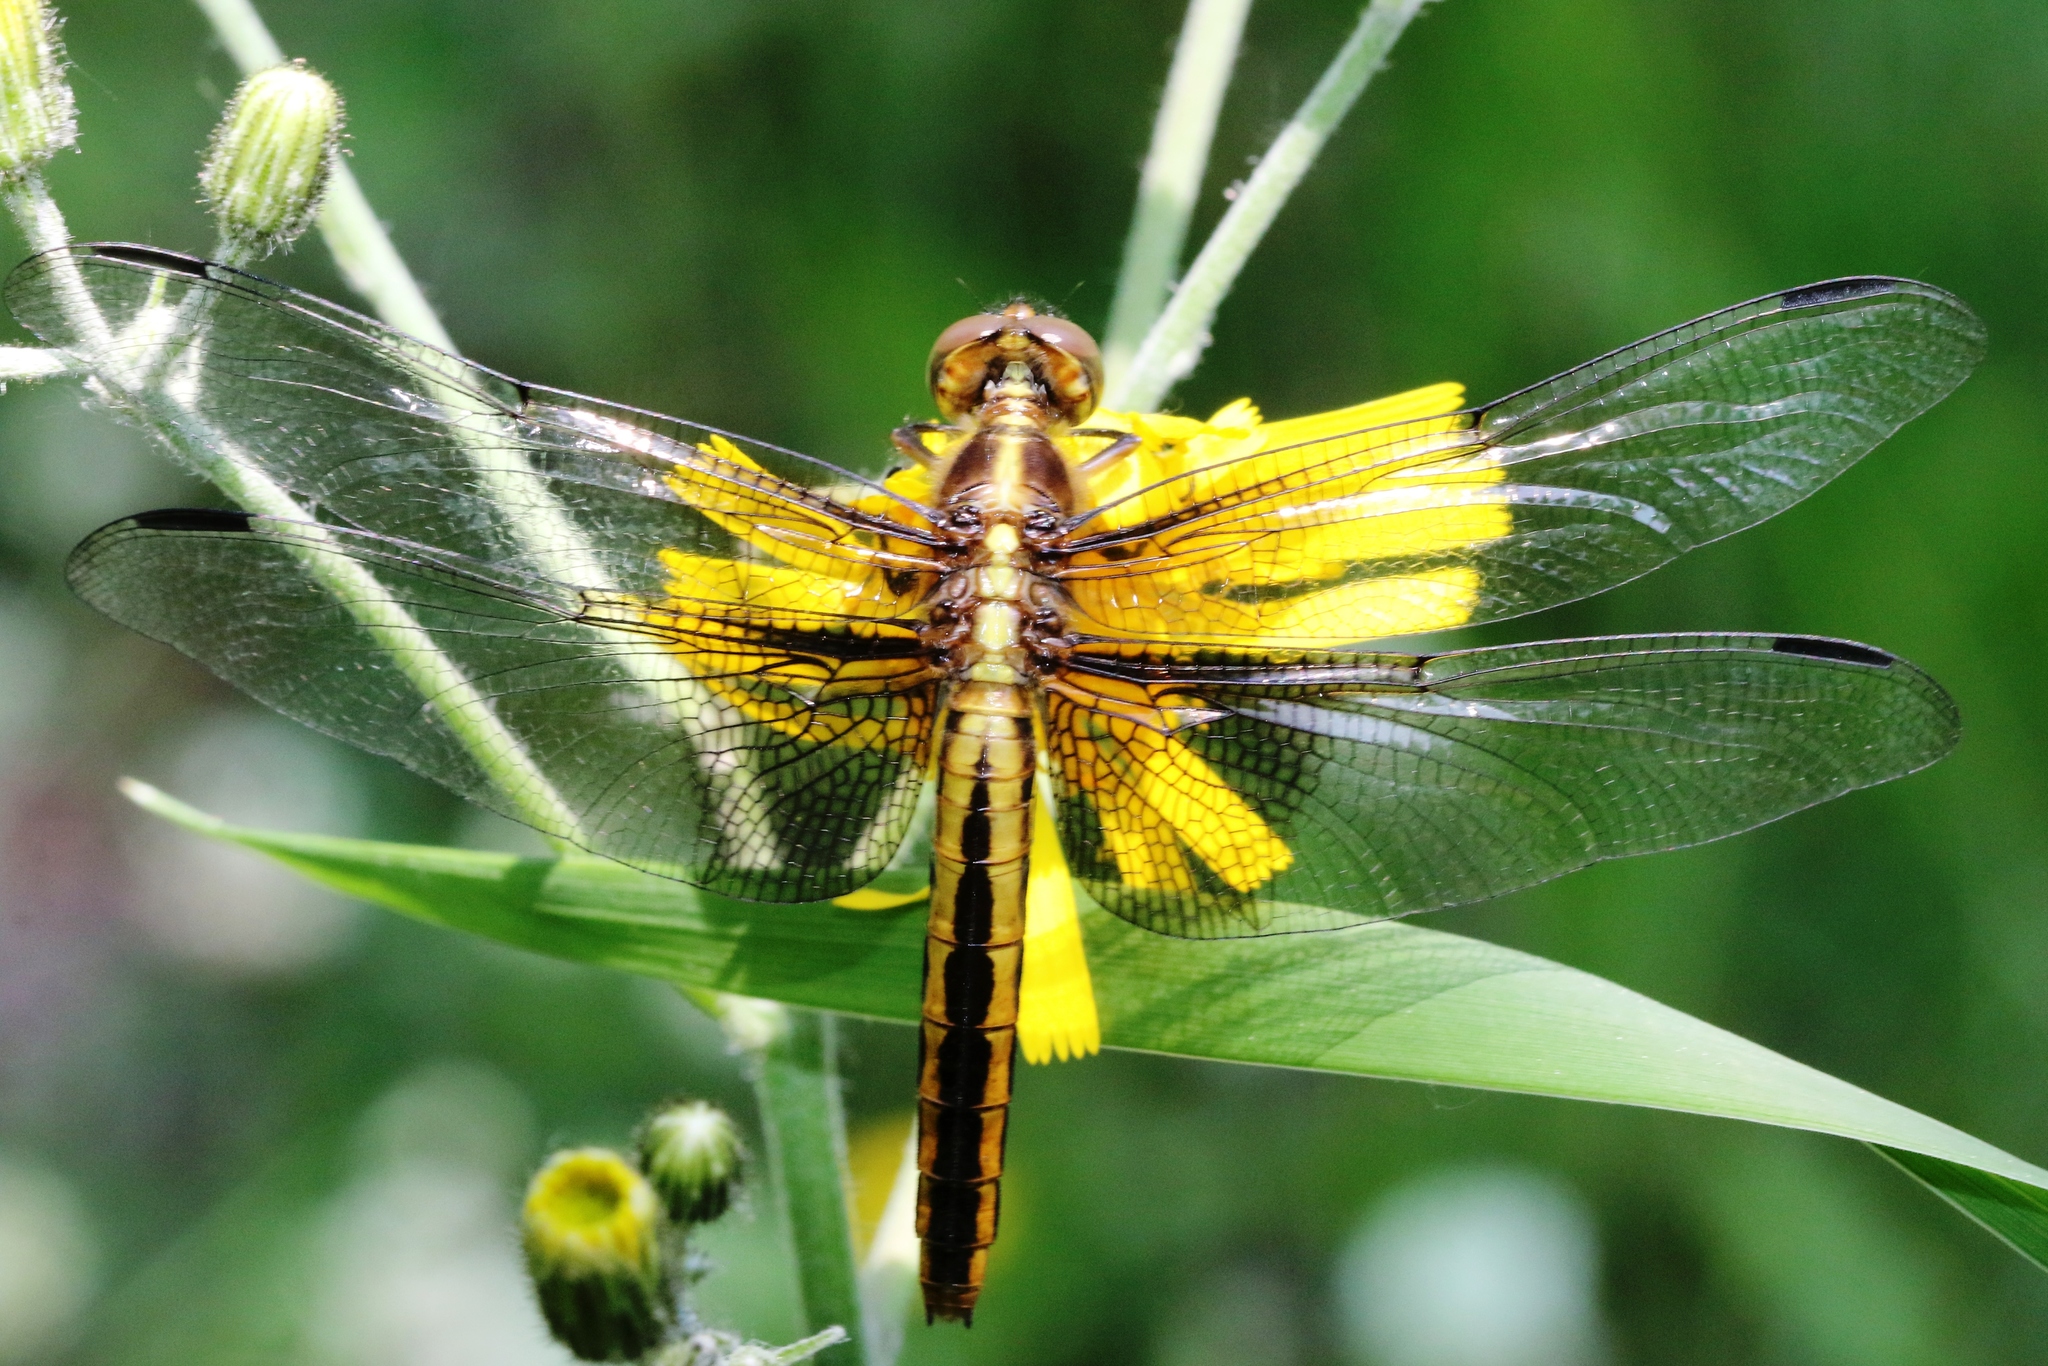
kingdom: Animalia
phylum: Arthropoda
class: Insecta
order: Odonata
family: Libellulidae
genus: Libellula
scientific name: Libellula luctuosa
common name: Widow skimmer
